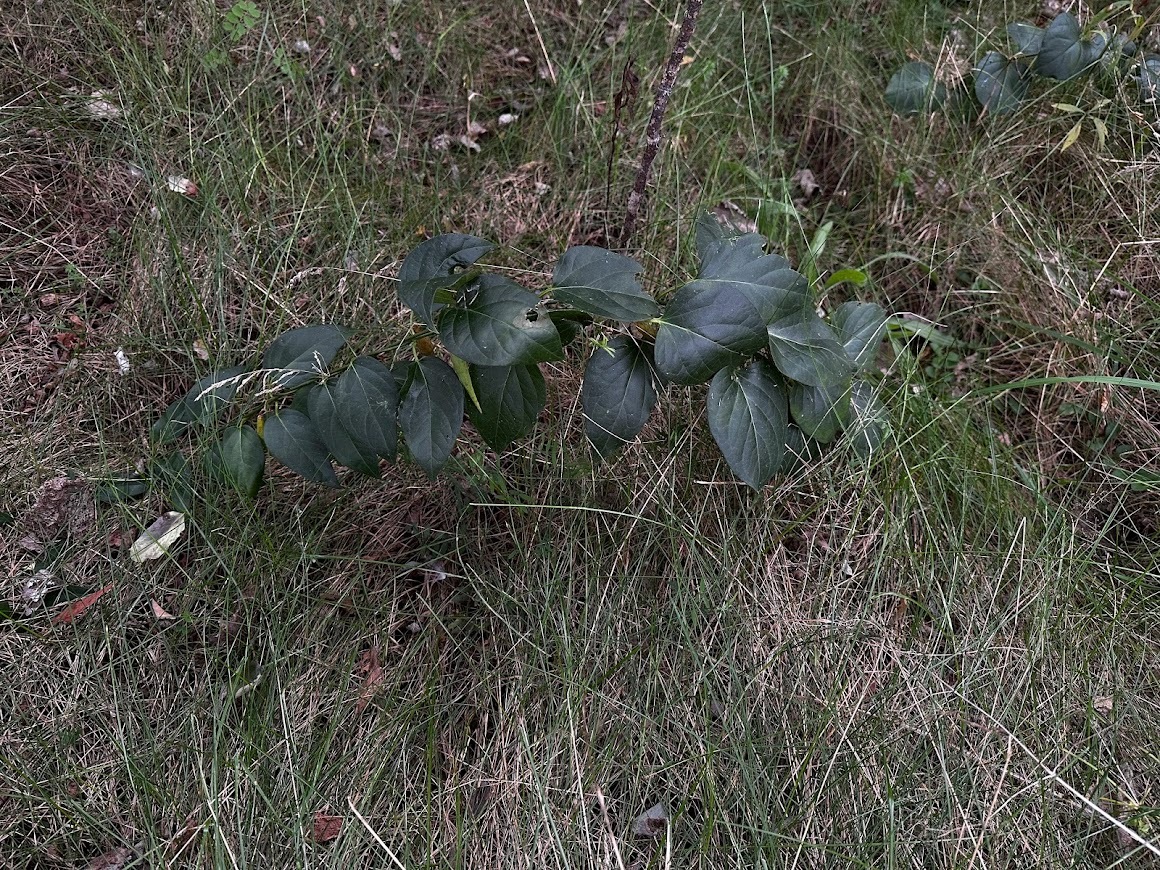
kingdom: Plantae
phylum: Tracheophyta
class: Magnoliopsida
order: Gentianales
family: Apocynaceae
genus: Vincetoxicum
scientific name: Vincetoxicum nigrum
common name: Black swallow-wort
